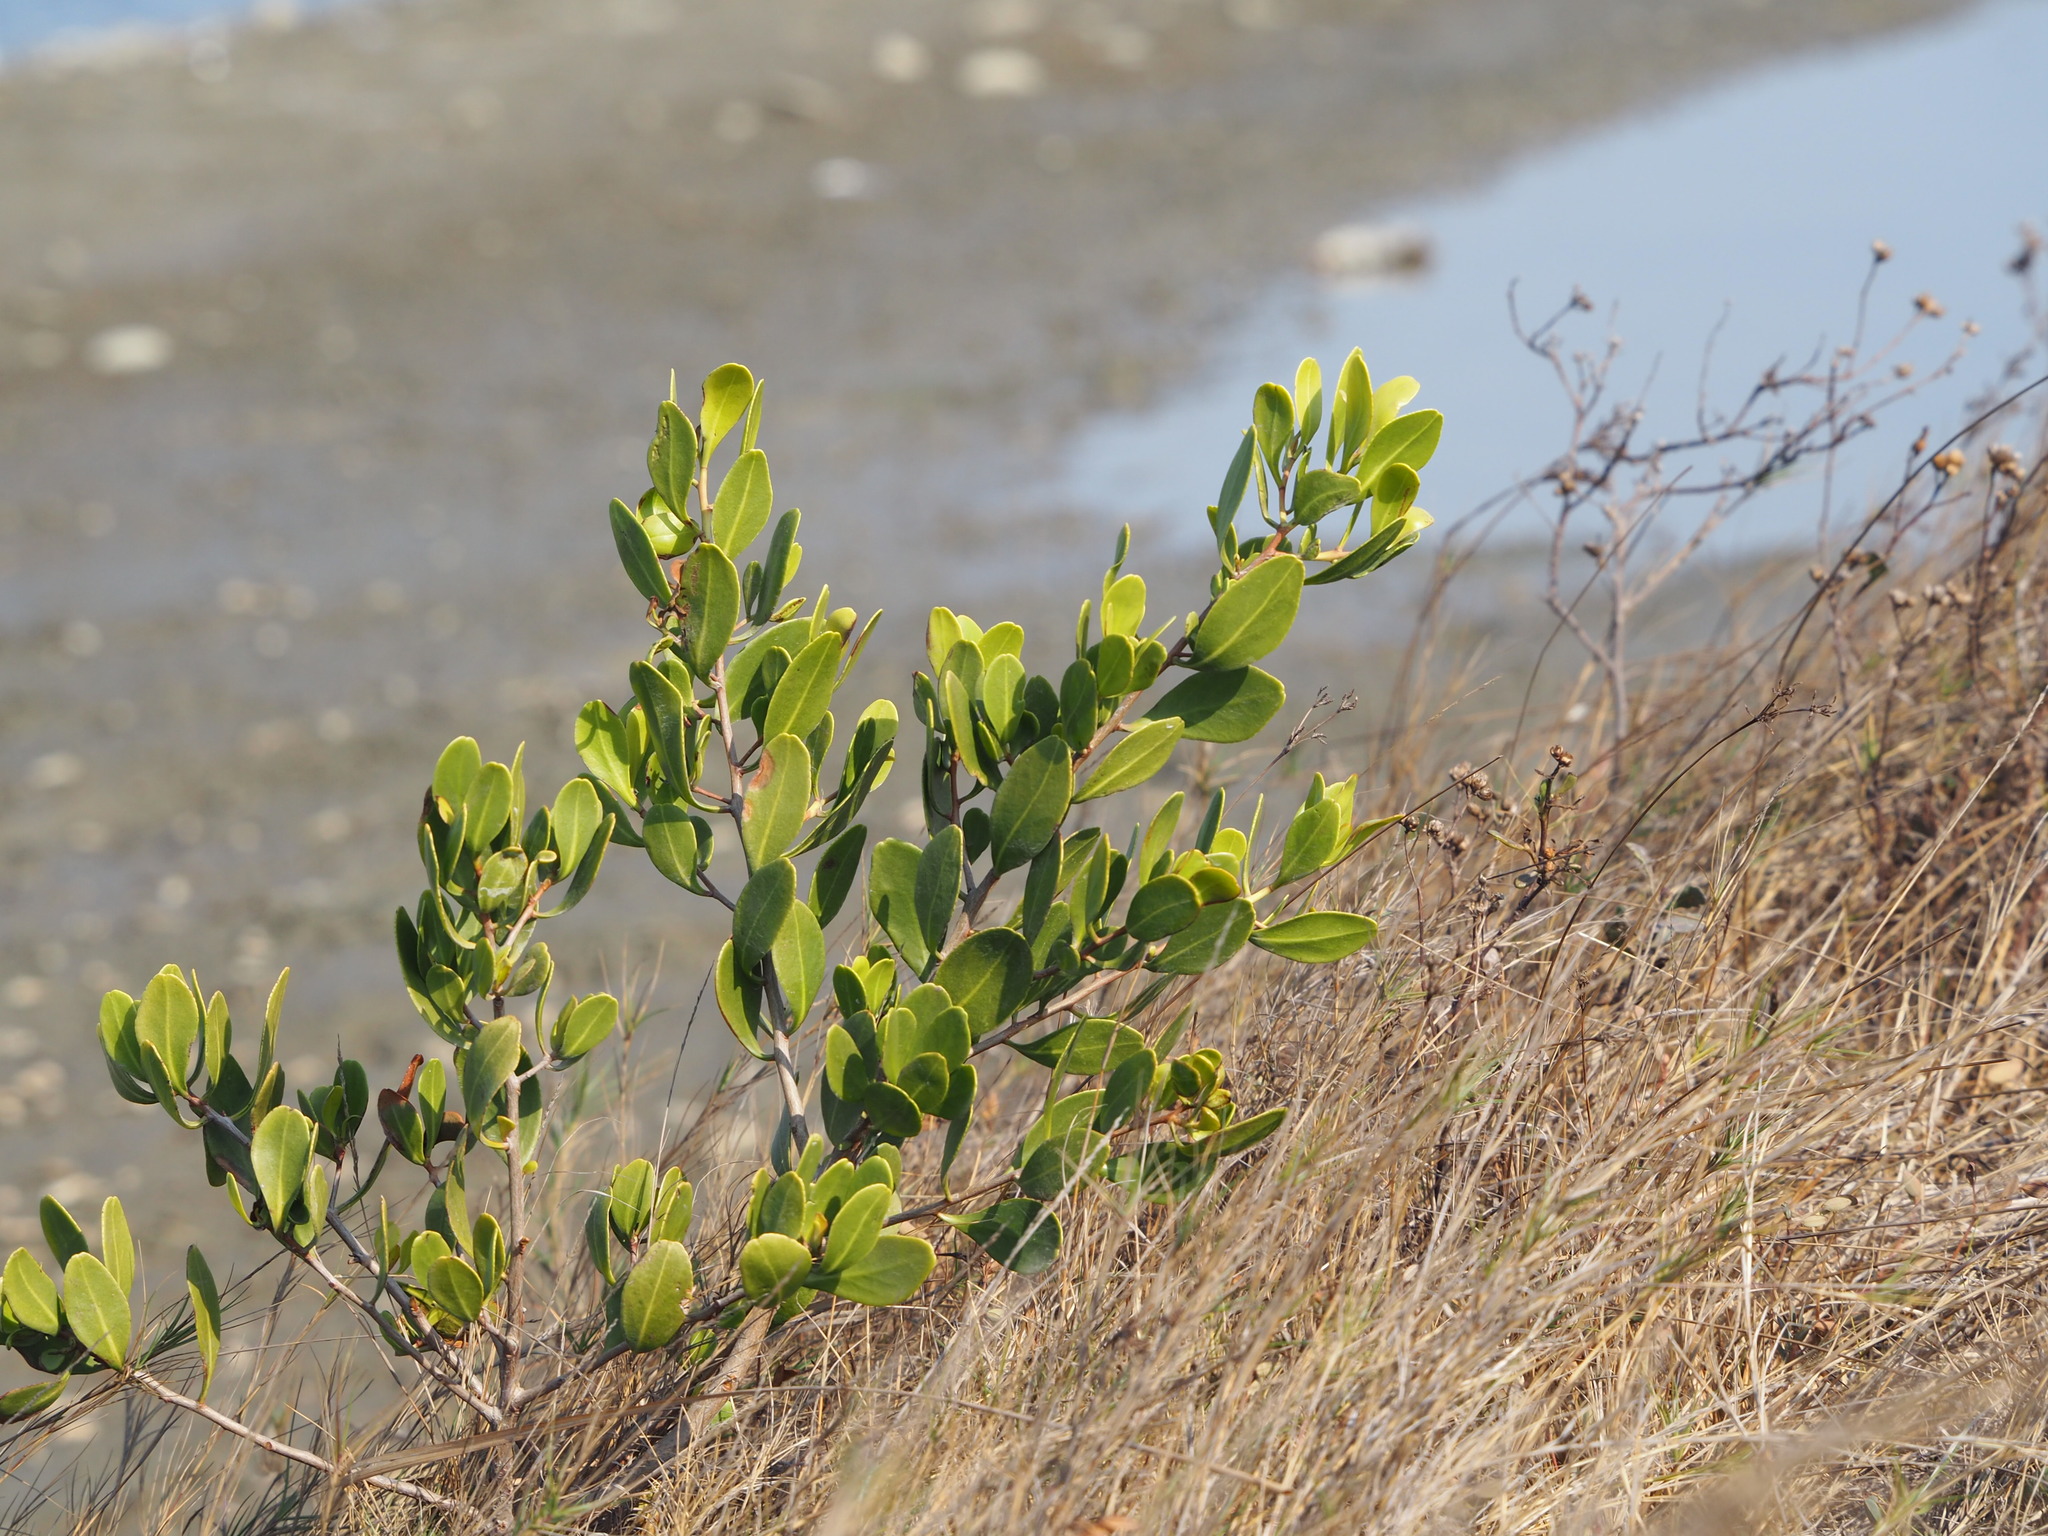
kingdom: Plantae
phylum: Tracheophyta
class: Magnoliopsida
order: Myrtales
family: Combretaceae
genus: Lumnitzera
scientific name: Lumnitzera racemosa
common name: White-flowered black mangrove
